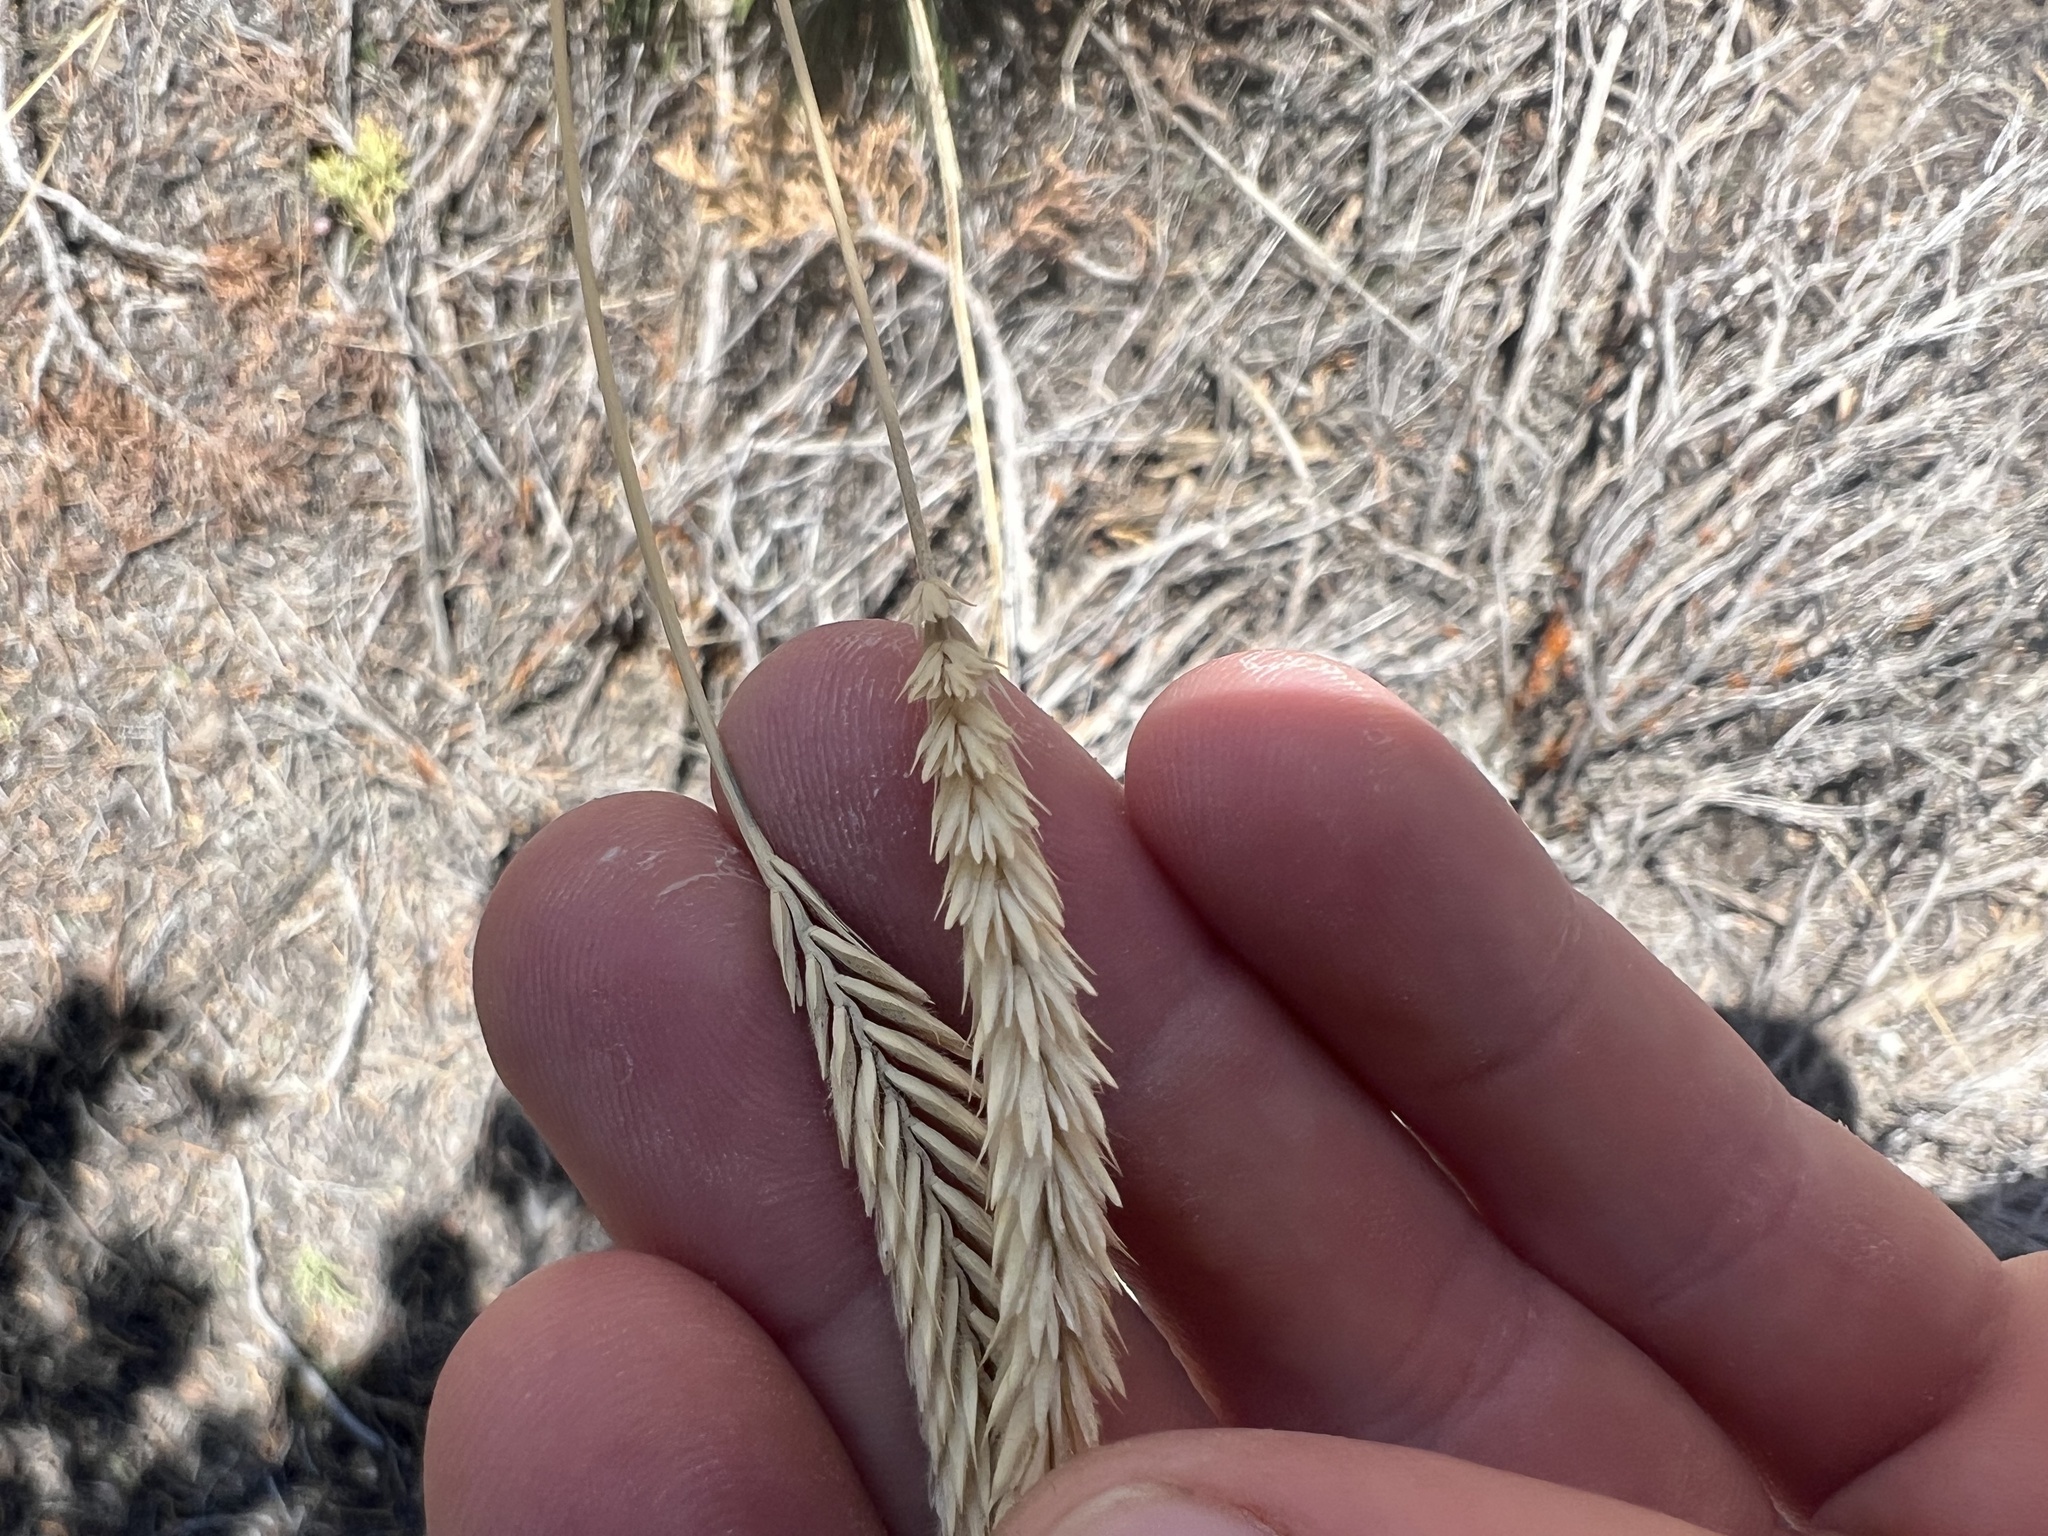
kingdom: Plantae
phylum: Tracheophyta
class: Liliopsida
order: Poales
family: Poaceae
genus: Agropyron
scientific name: Agropyron cristatum
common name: Crested wheatgrass
